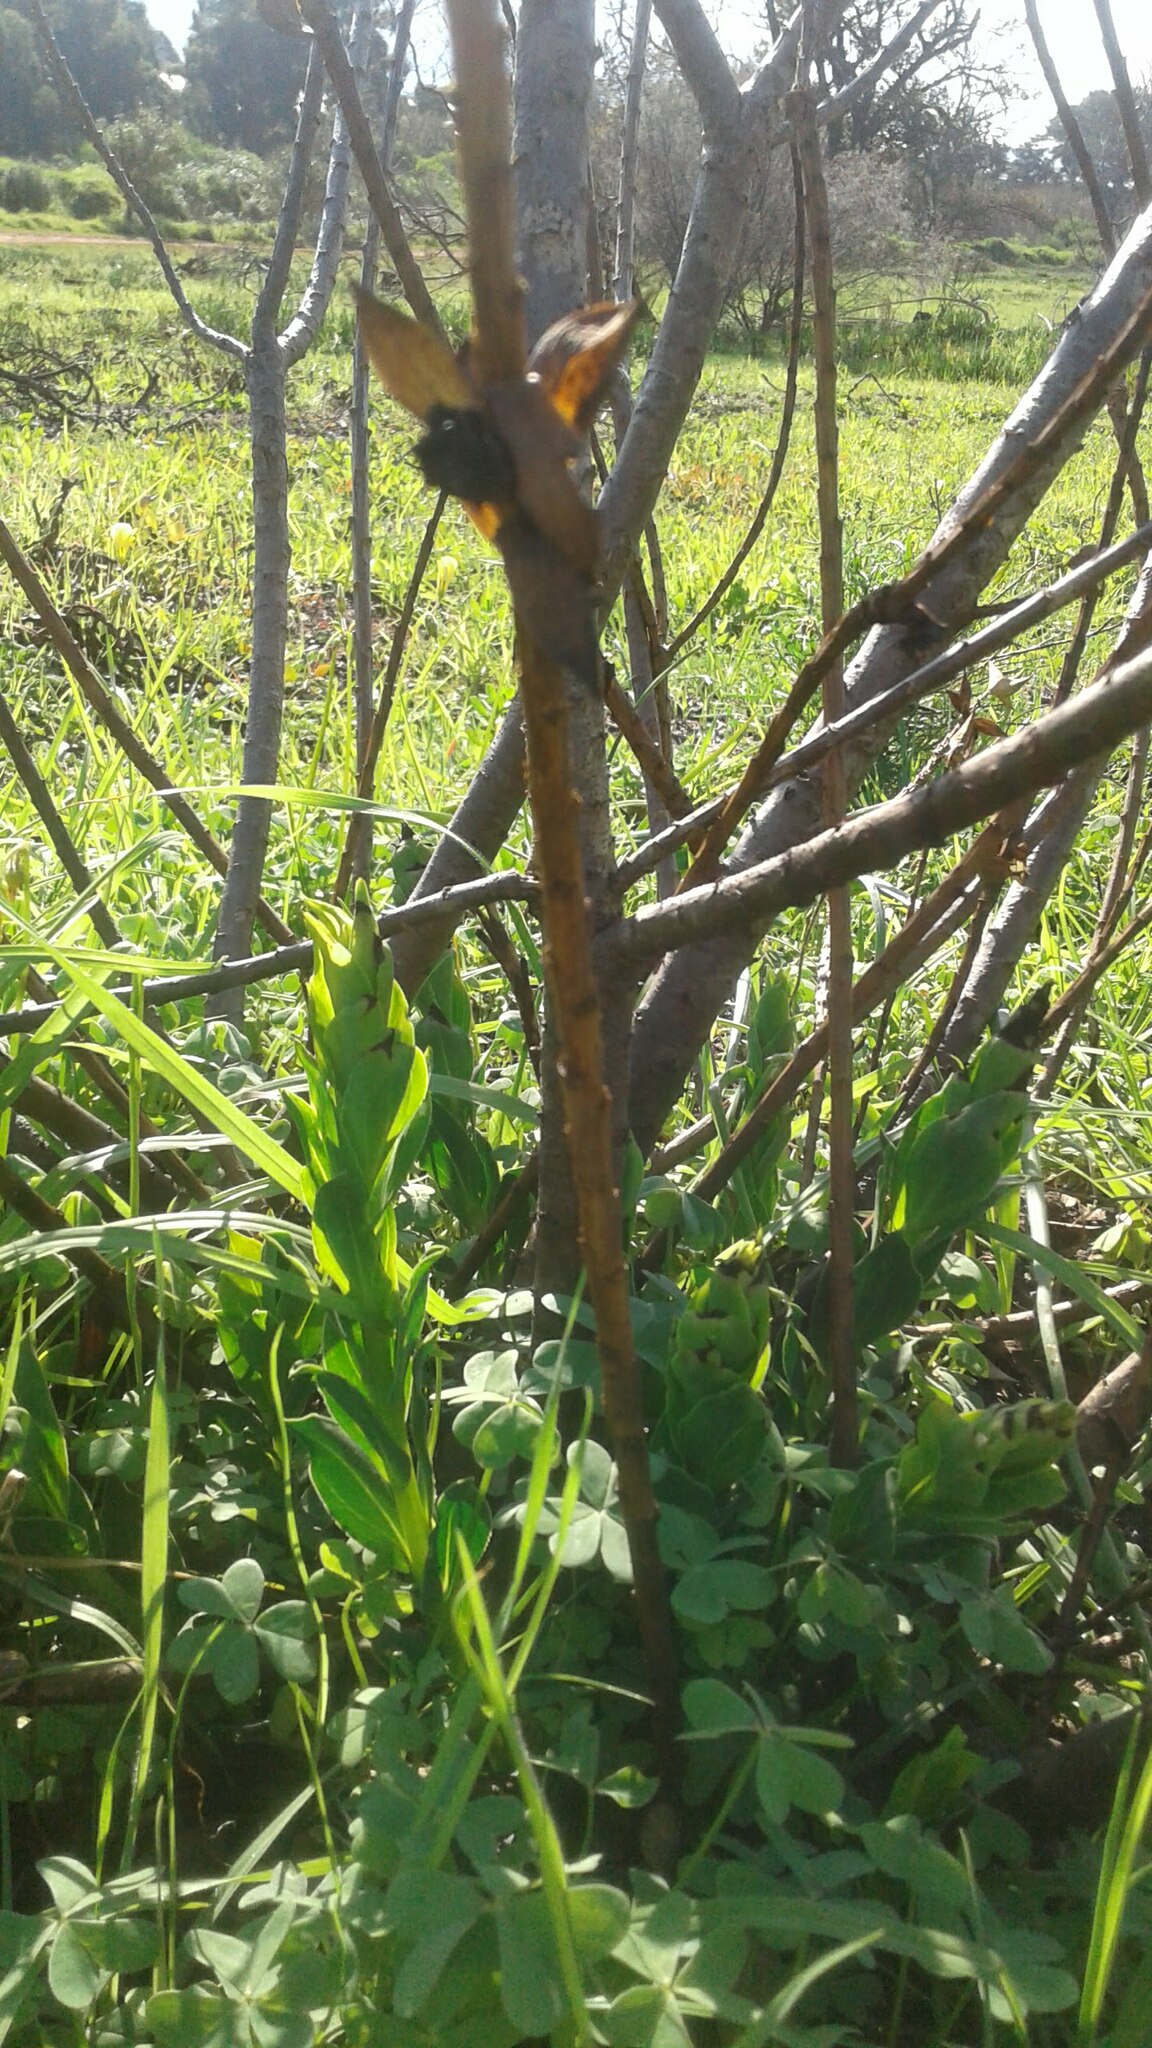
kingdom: Plantae
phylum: Tracheophyta
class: Magnoliopsida
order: Fabales
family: Fabaceae
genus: Liparia
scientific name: Liparia splendens
